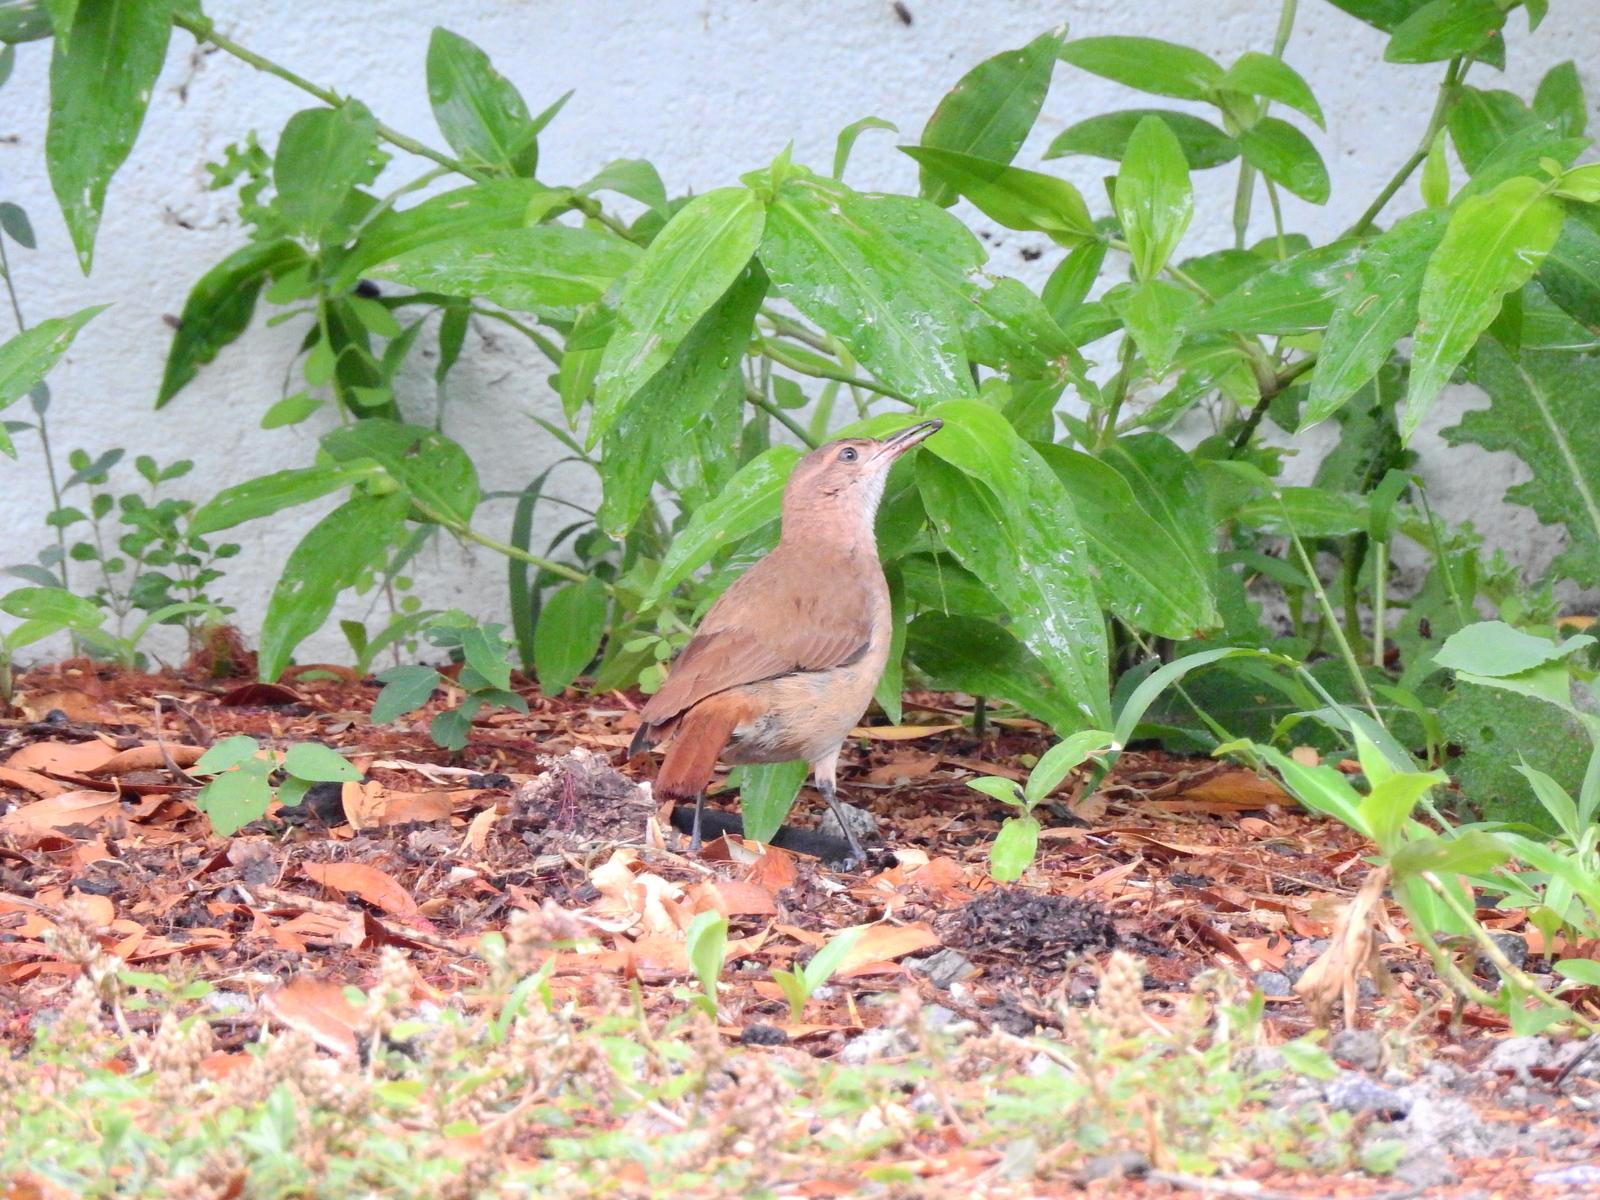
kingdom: Animalia
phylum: Chordata
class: Aves
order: Passeriformes
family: Furnariidae
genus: Furnarius
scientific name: Furnarius rufus
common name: Rufous hornero
